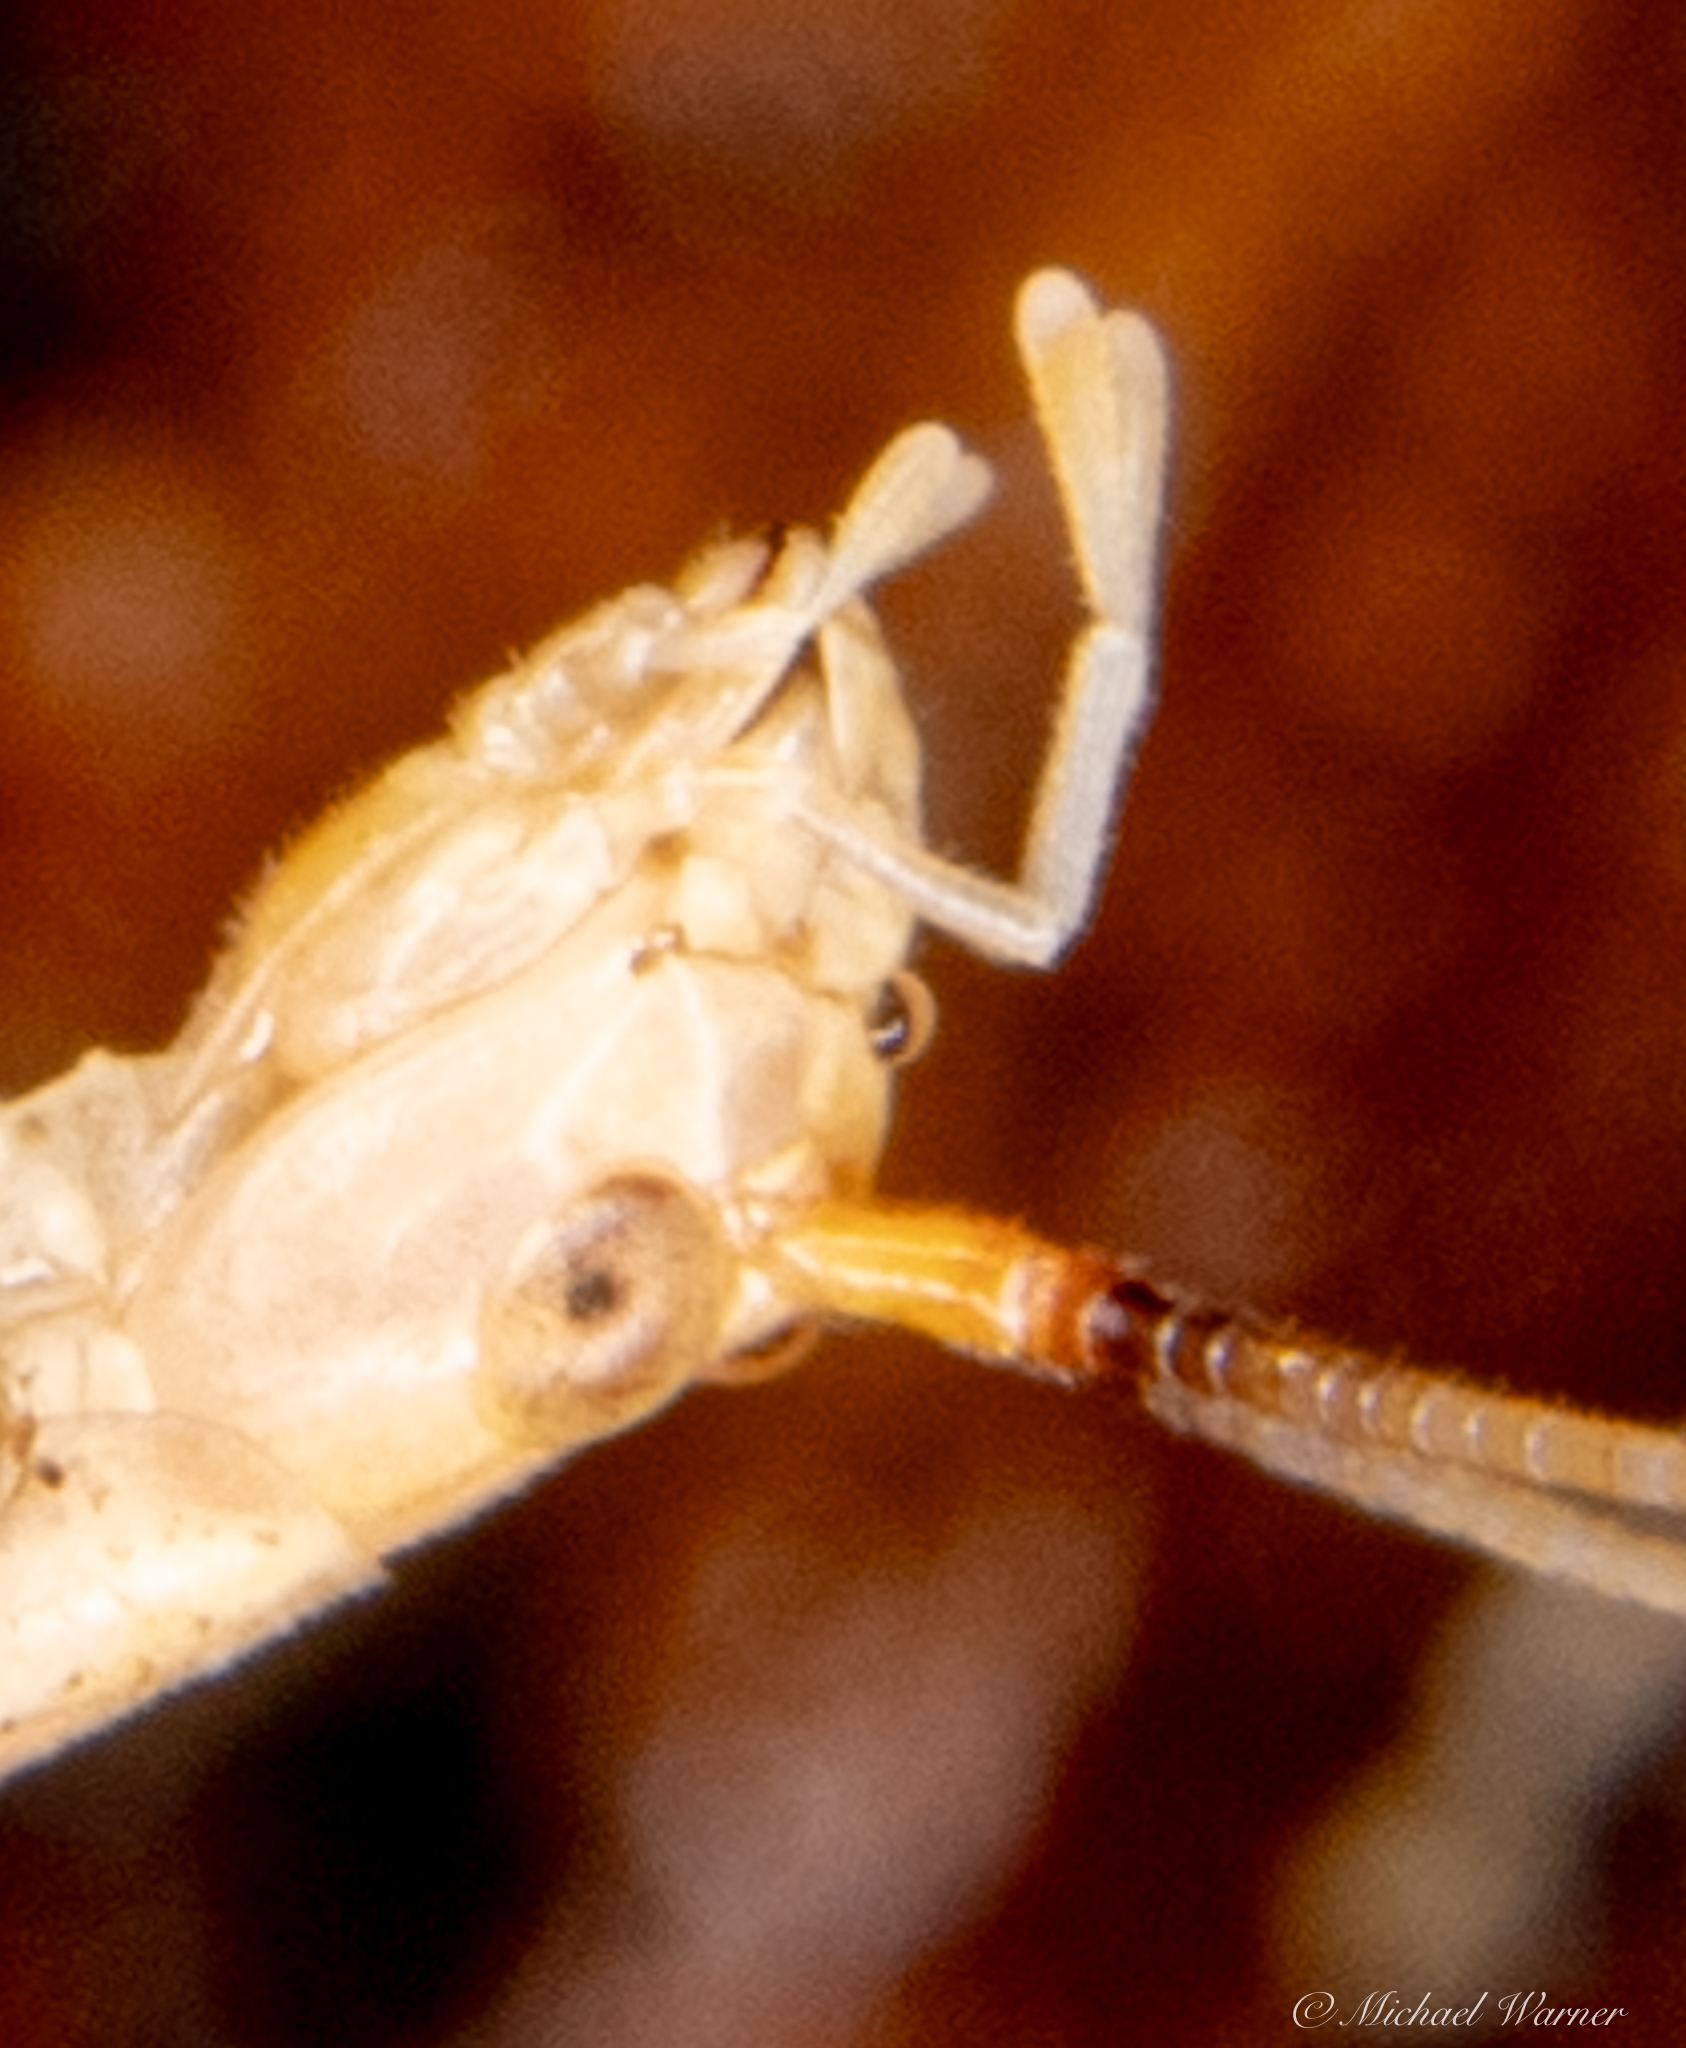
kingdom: Animalia
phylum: Arthropoda
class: Insecta
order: Orthoptera
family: Gryllidae
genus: Oecanthus
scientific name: Oecanthus californicus
